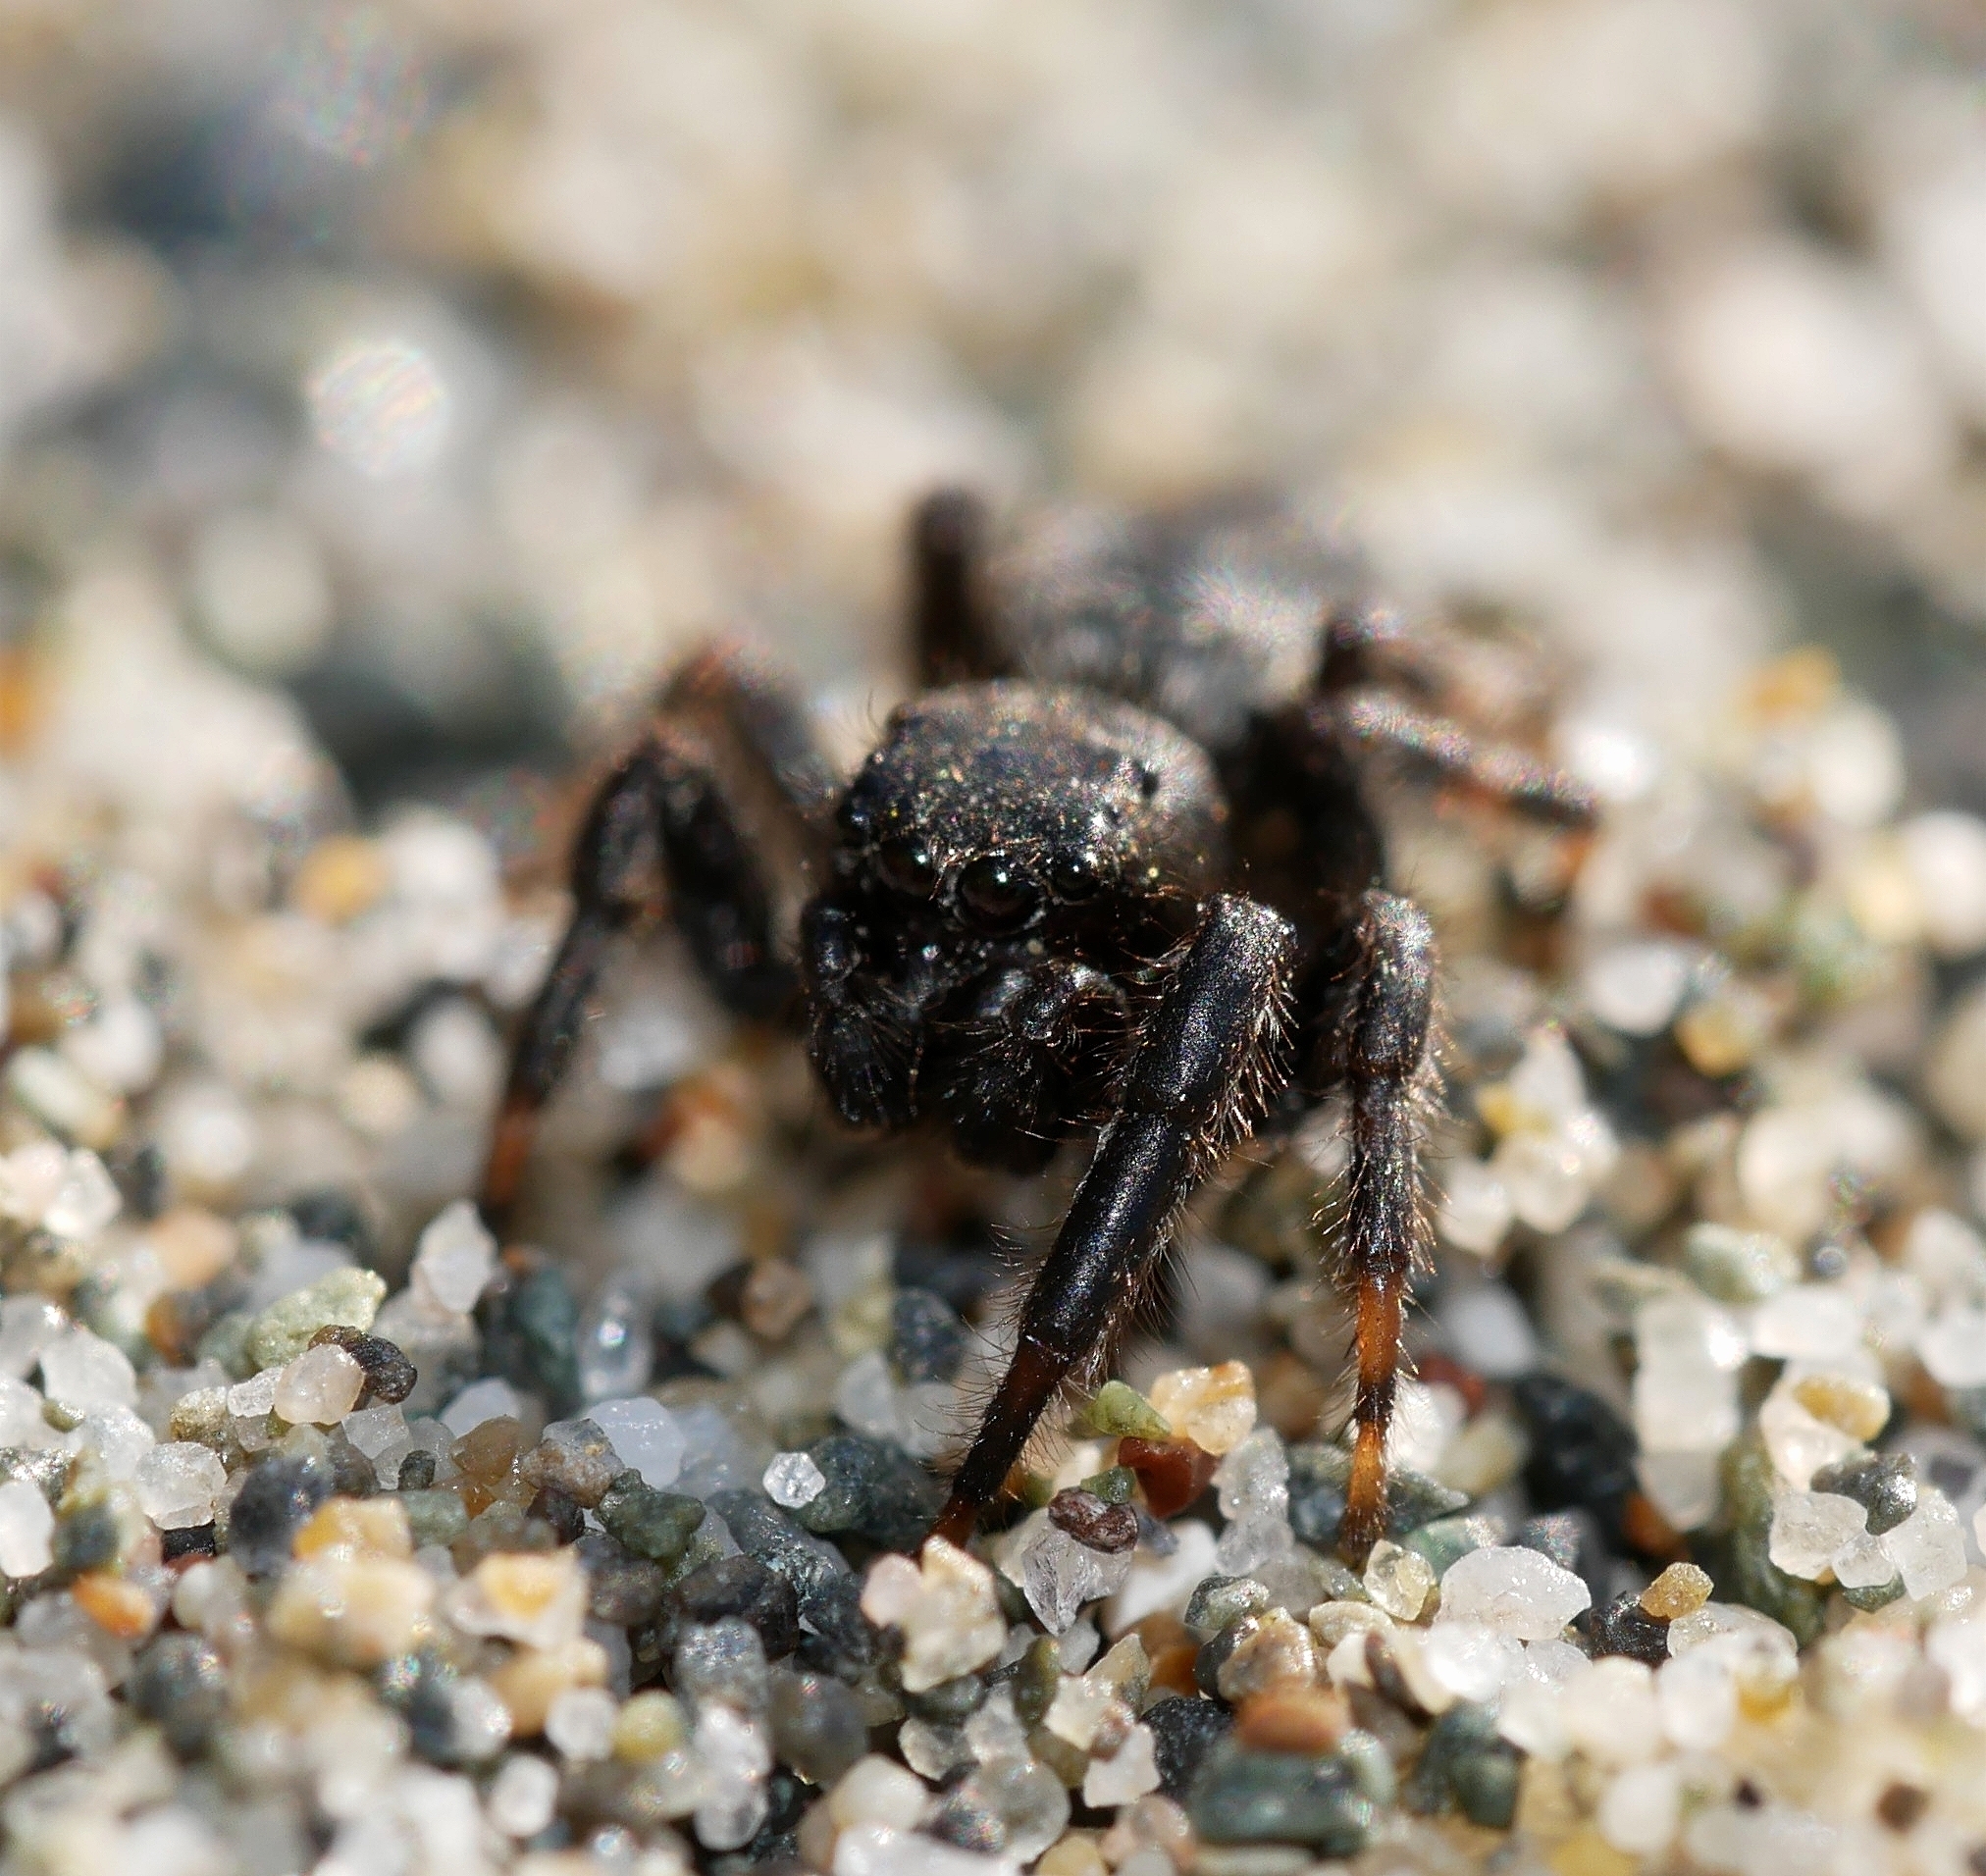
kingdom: Animalia
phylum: Arthropoda
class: Arachnida
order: Araneae
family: Salticidae
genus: Terralonus
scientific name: Terralonus californicus
